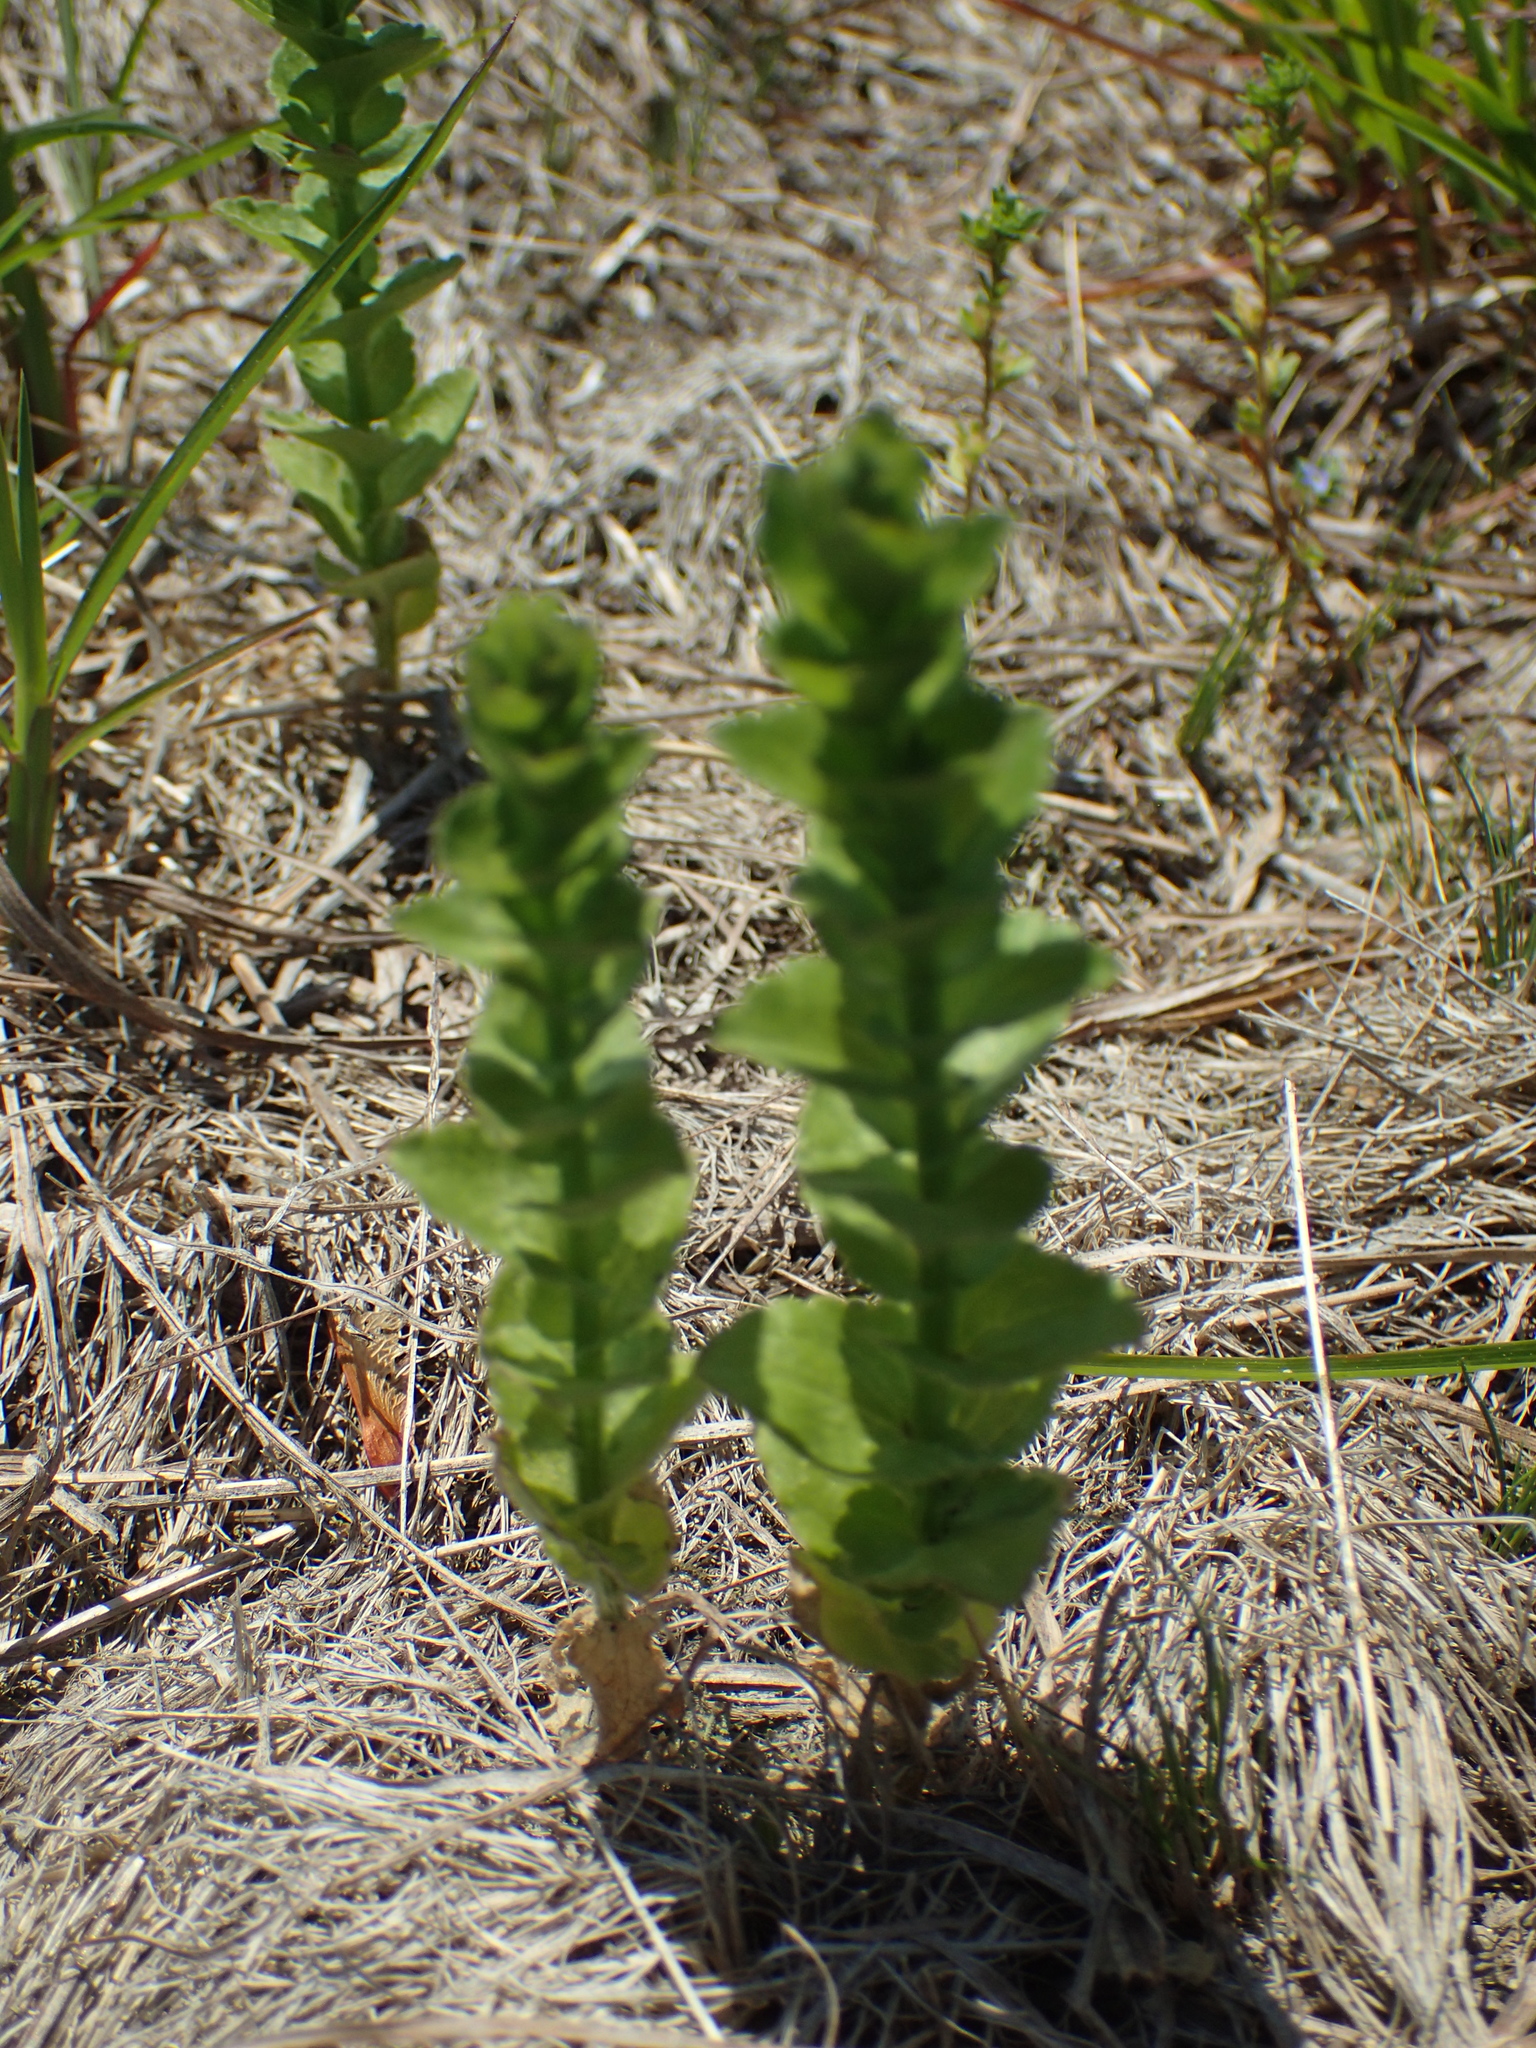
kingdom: Plantae
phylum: Tracheophyta
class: Magnoliopsida
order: Asterales
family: Campanulaceae
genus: Triodanis
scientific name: Triodanis perfoliata
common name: Clasping venus' looking-glass
